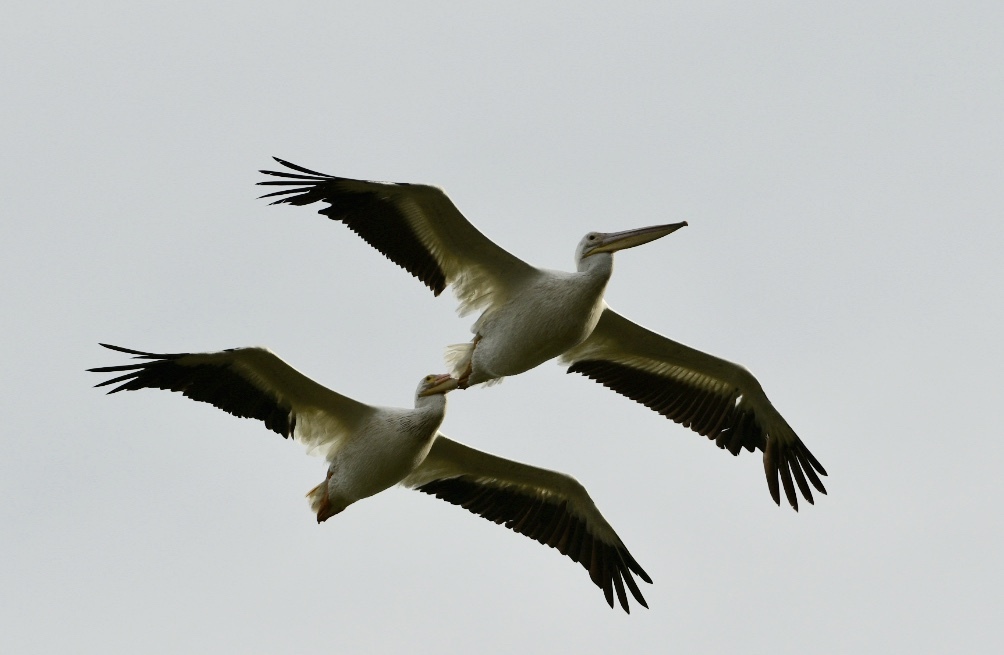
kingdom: Animalia
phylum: Chordata
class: Aves
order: Pelecaniformes
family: Pelecanidae
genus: Pelecanus
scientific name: Pelecanus erythrorhynchos
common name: American white pelican
